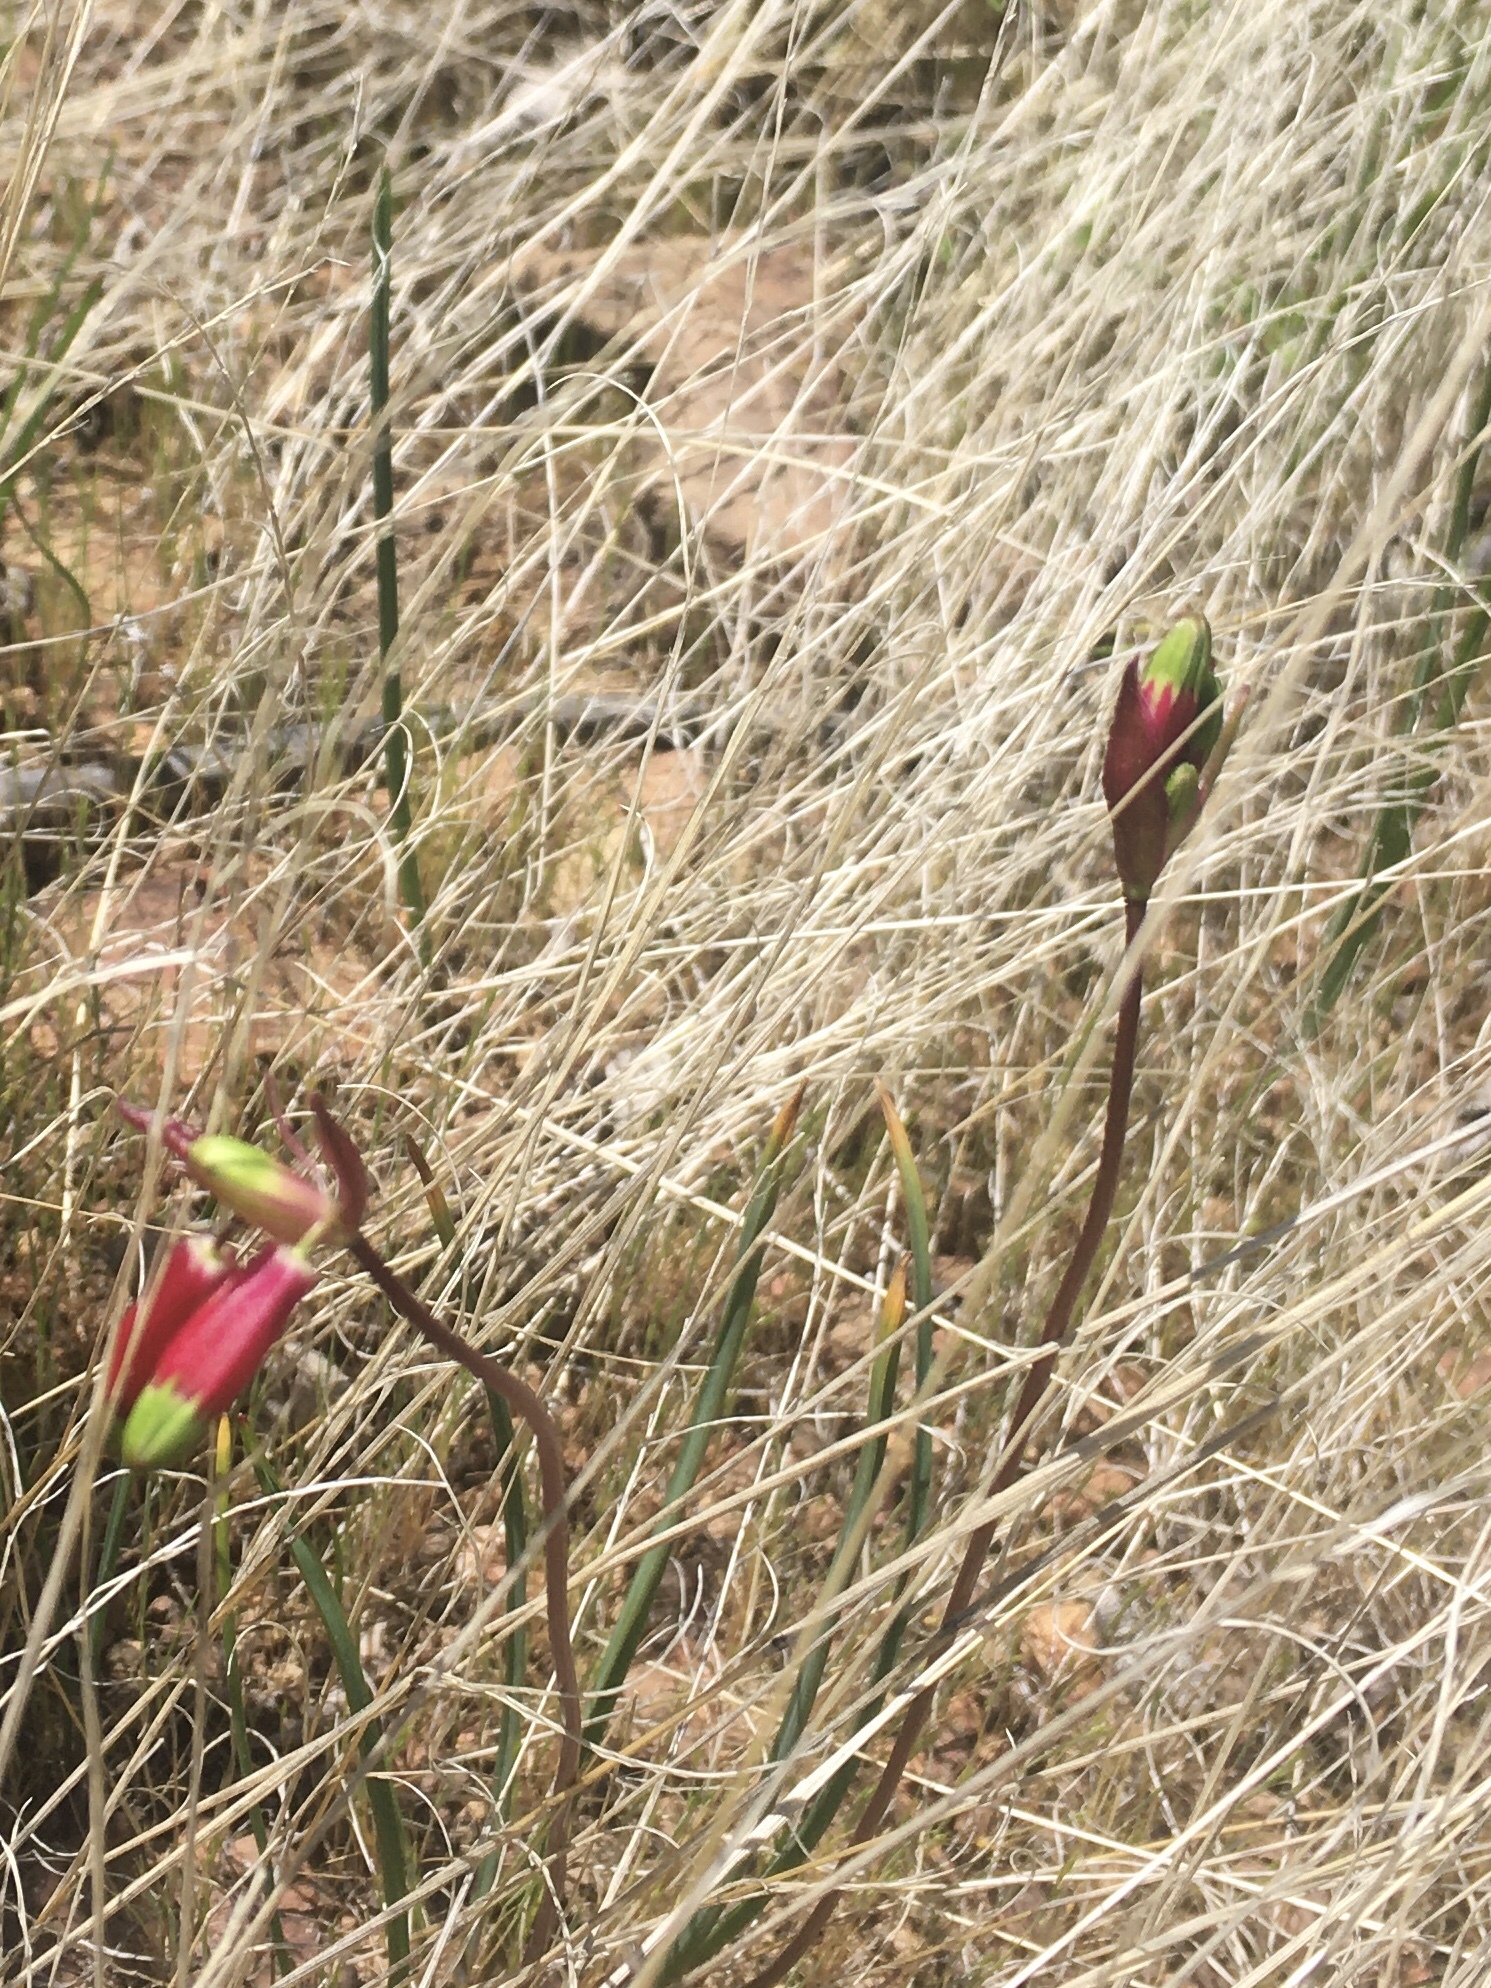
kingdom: Plantae
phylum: Tracheophyta
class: Liliopsida
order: Asparagales
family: Asparagaceae
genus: Dichelostemma
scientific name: Dichelostemma ida-maia
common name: Firecracker-flower
